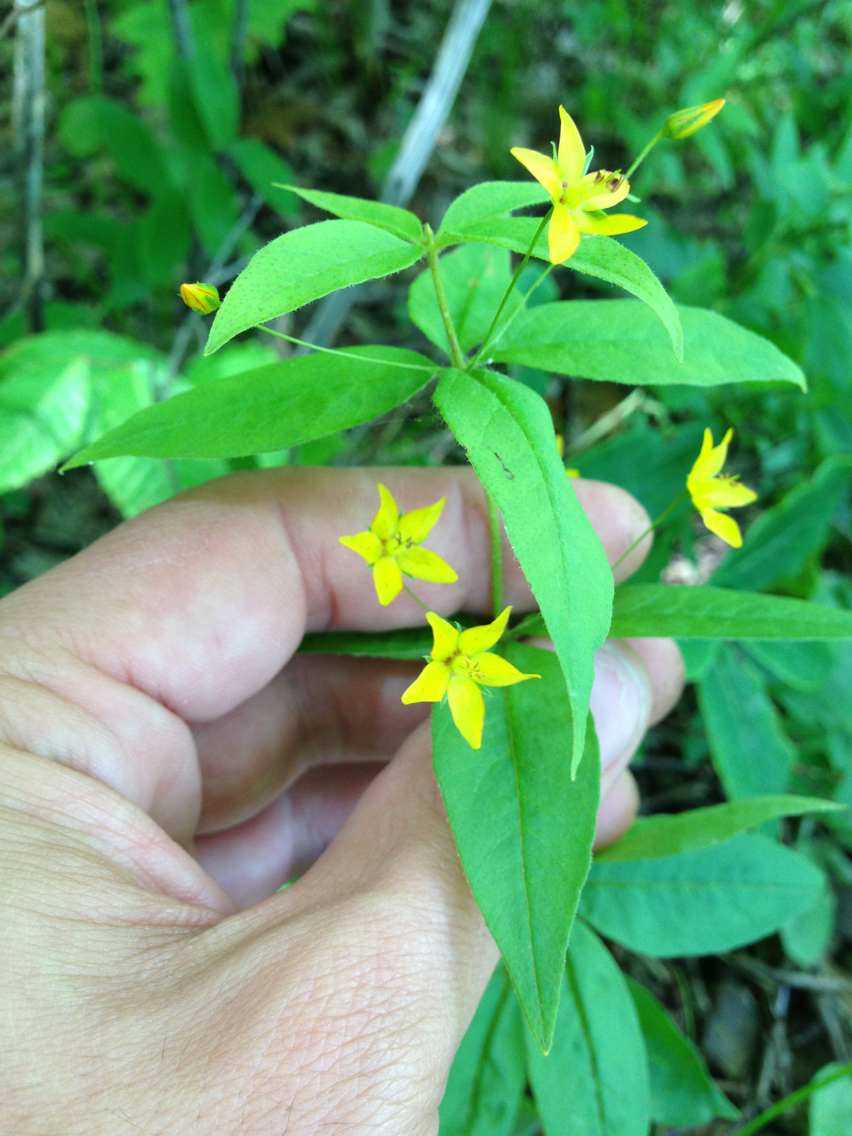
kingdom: Plantae
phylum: Tracheophyta
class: Magnoliopsida
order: Ericales
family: Primulaceae
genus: Lysimachia
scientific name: Lysimachia quadrifolia
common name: Whorled loosestrife
